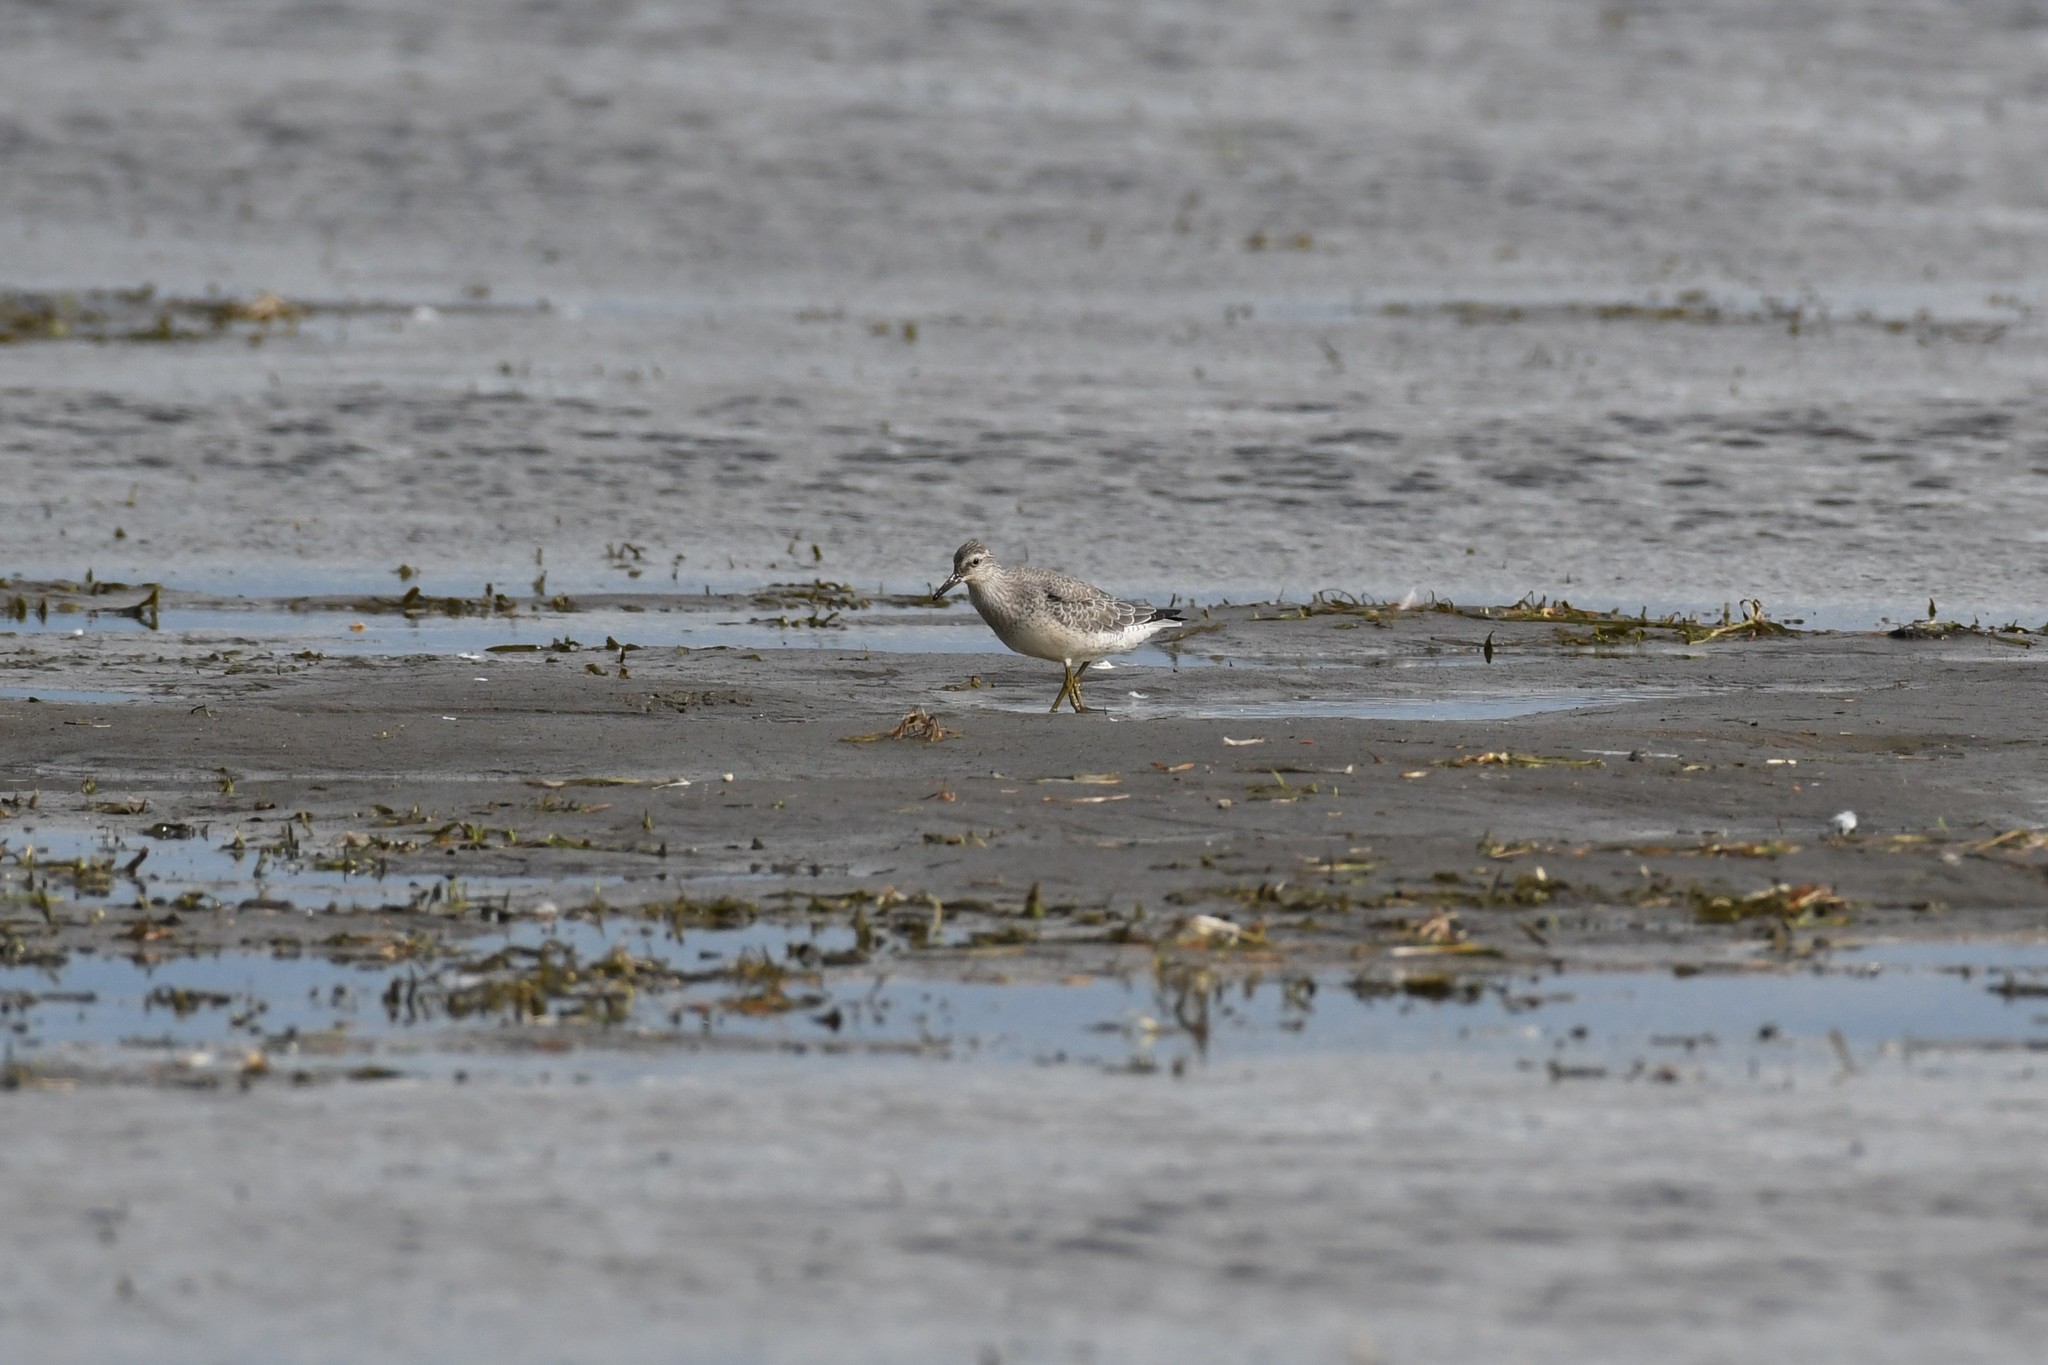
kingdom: Animalia
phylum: Chordata
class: Aves
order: Charadriiformes
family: Scolopacidae
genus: Calidris
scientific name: Calidris canutus
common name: Red knot
